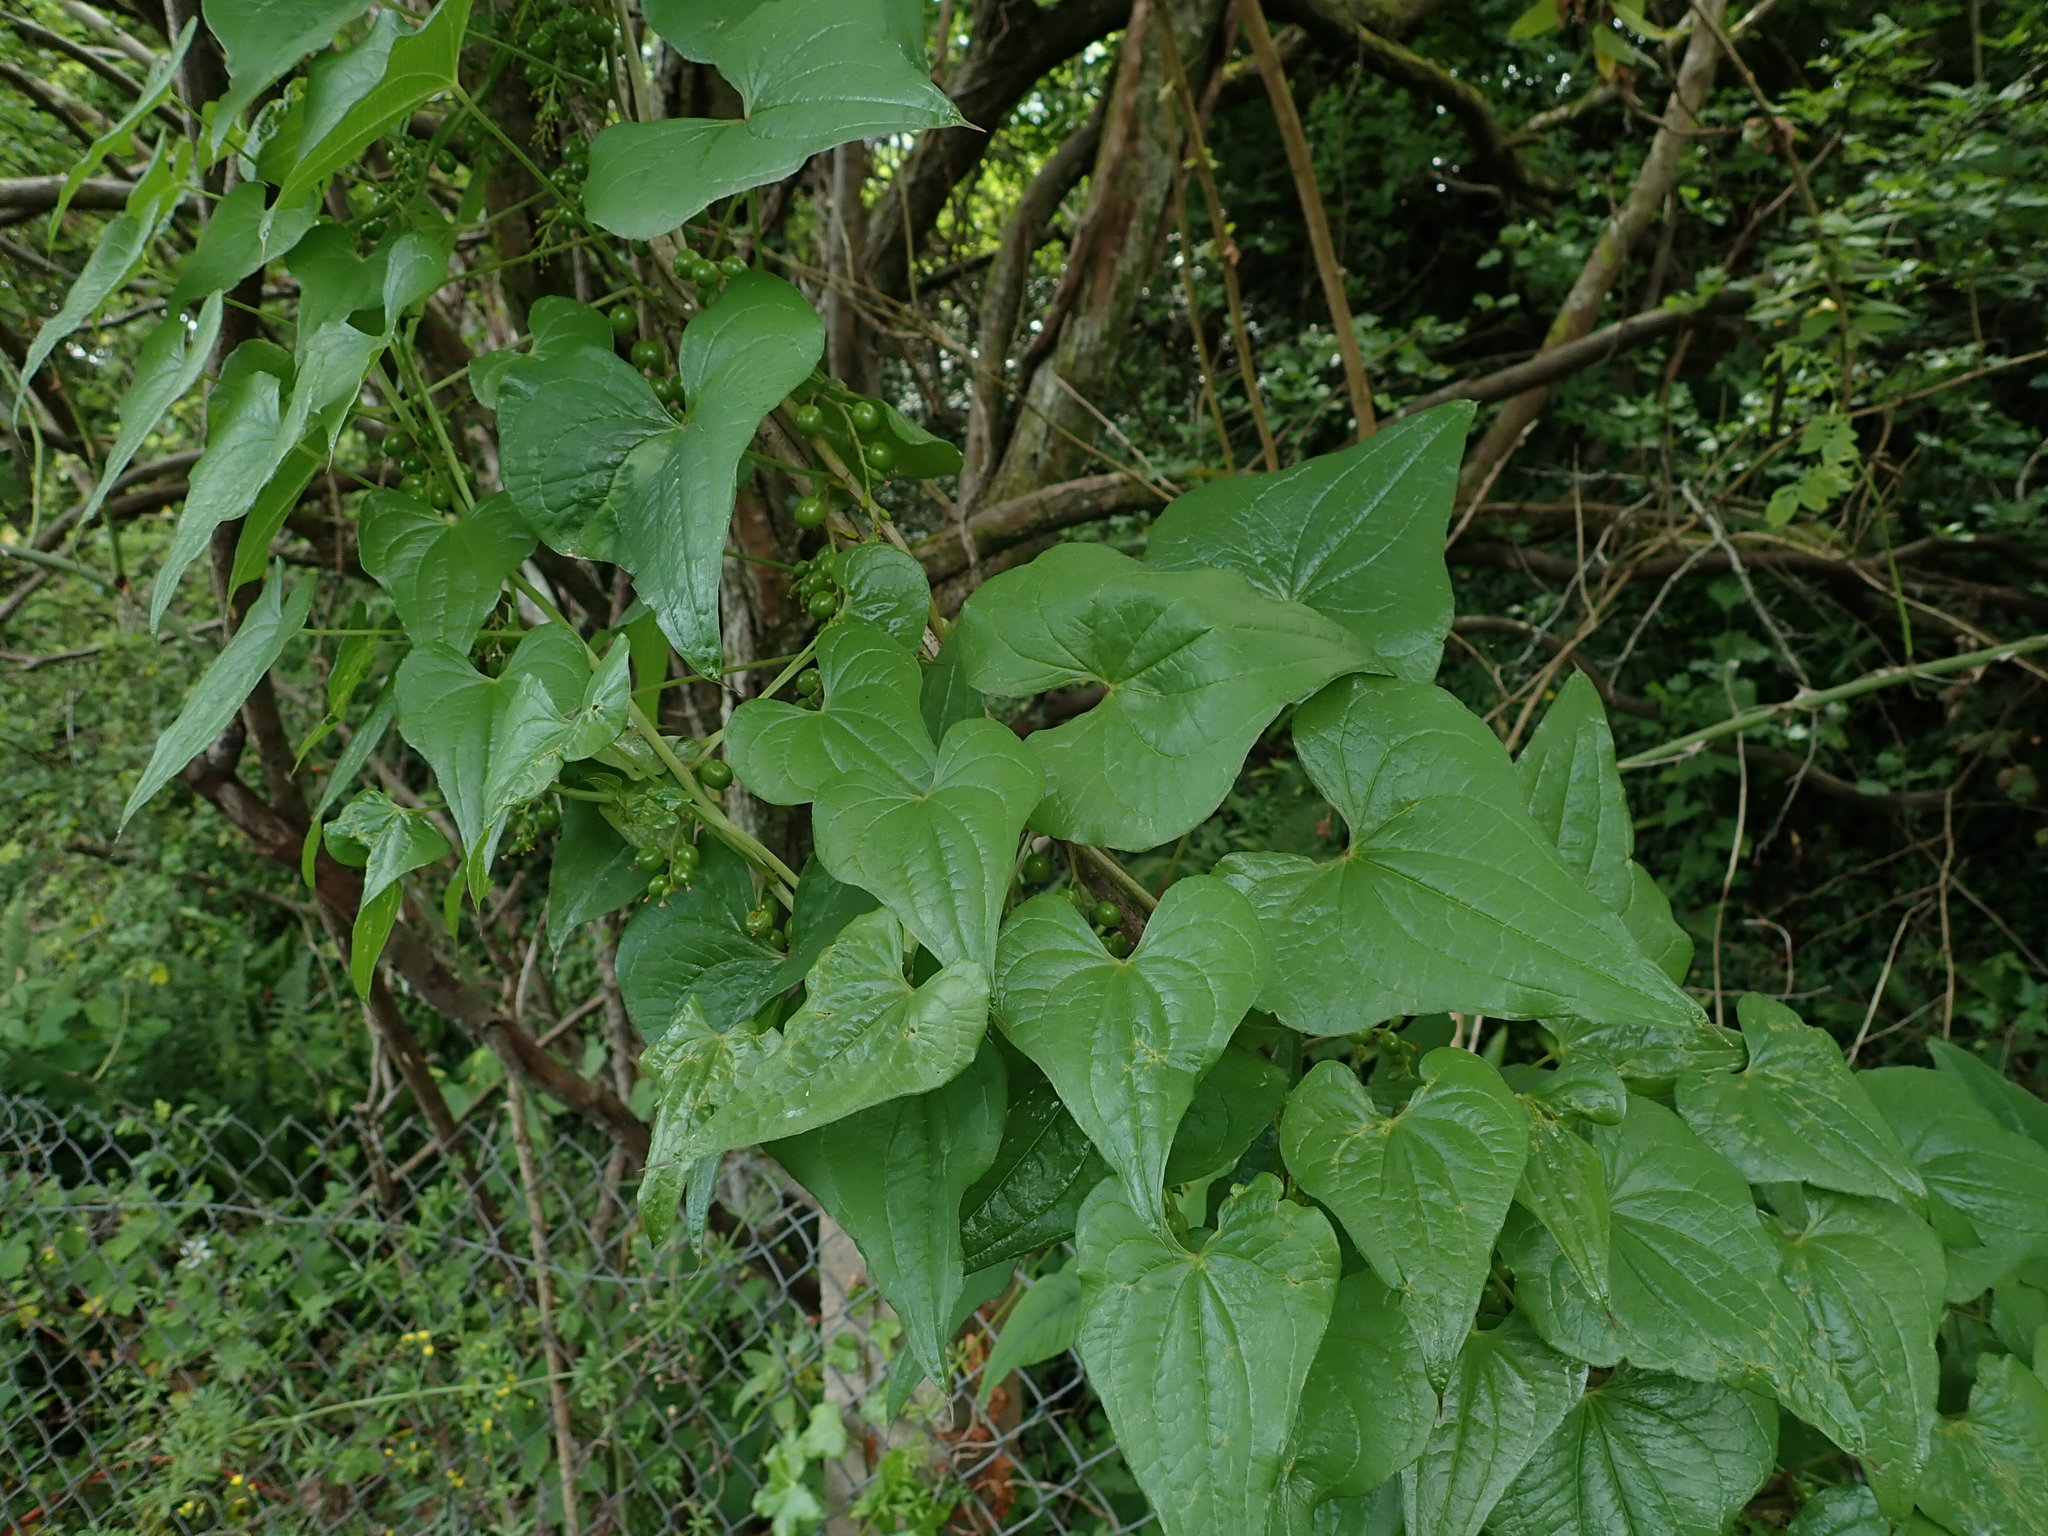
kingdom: Plantae
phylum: Tracheophyta
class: Liliopsida
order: Dioscoreales
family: Dioscoreaceae
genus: Dioscorea
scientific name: Dioscorea communis
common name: Black-bindweed
